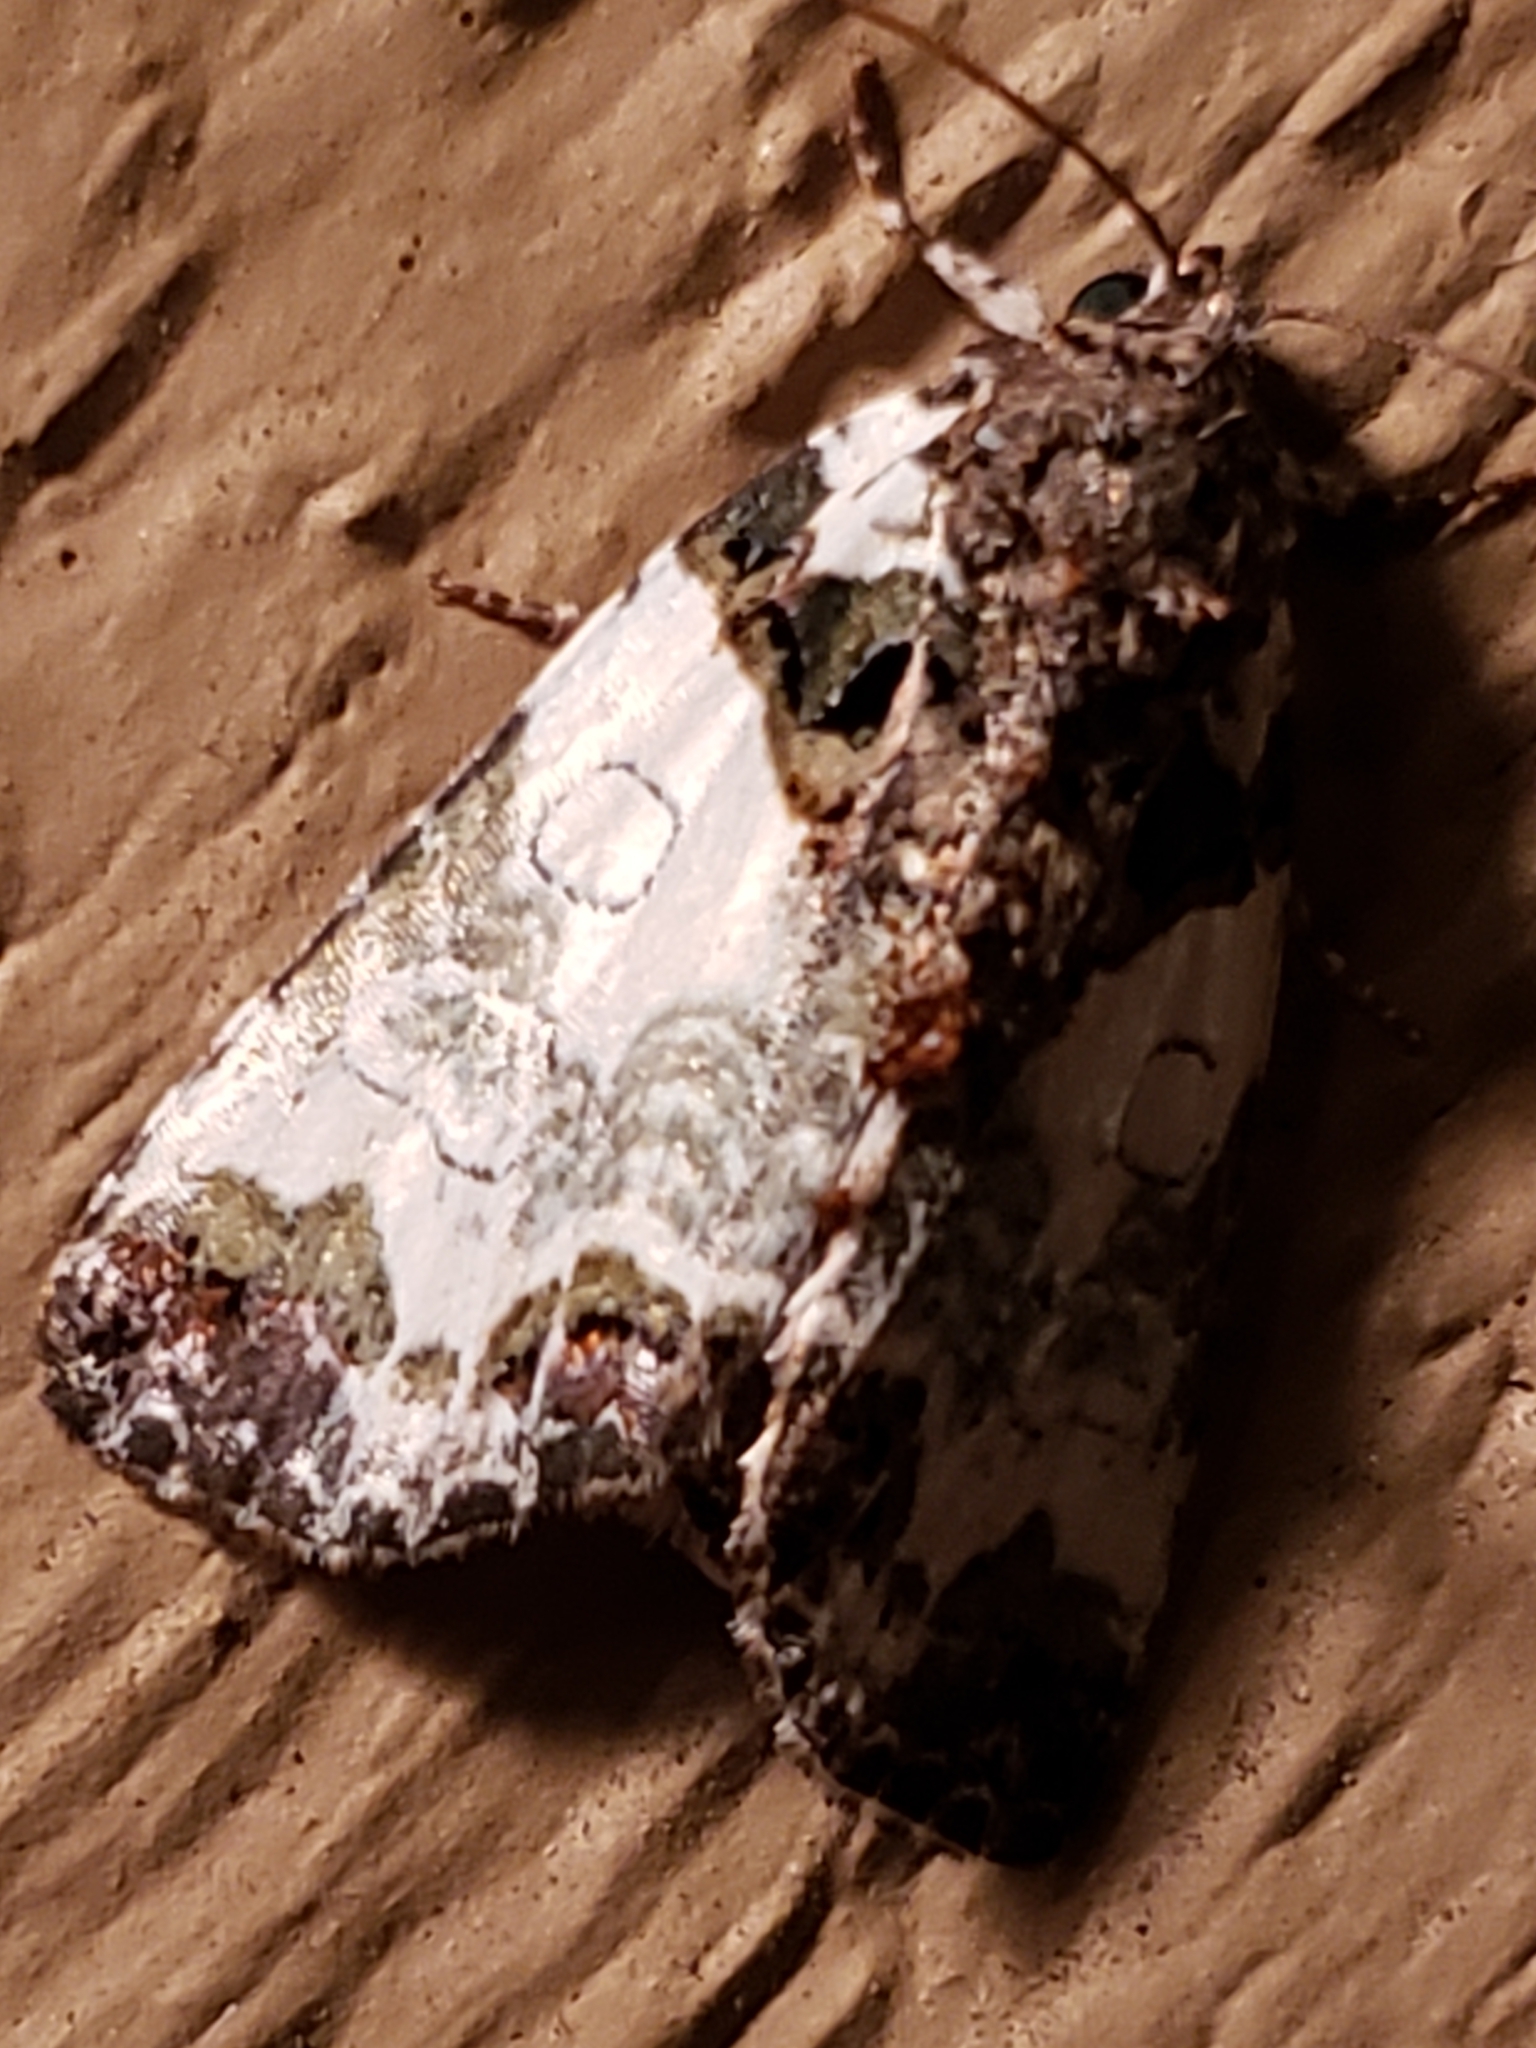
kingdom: Animalia
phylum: Arthropoda
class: Insecta
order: Lepidoptera
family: Noctuidae
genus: Cerma
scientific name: Cerma cerintha
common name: Tufted bird-dropping moth
